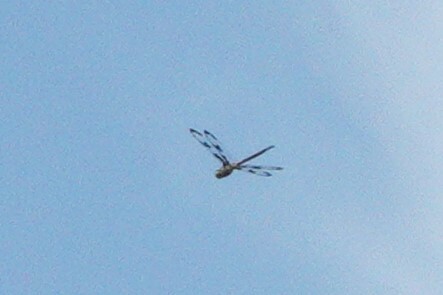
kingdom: Animalia
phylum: Arthropoda
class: Insecta
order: Odonata
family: Corduliidae
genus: Epitheca
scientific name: Epitheca princeps
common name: Prince baskettail
